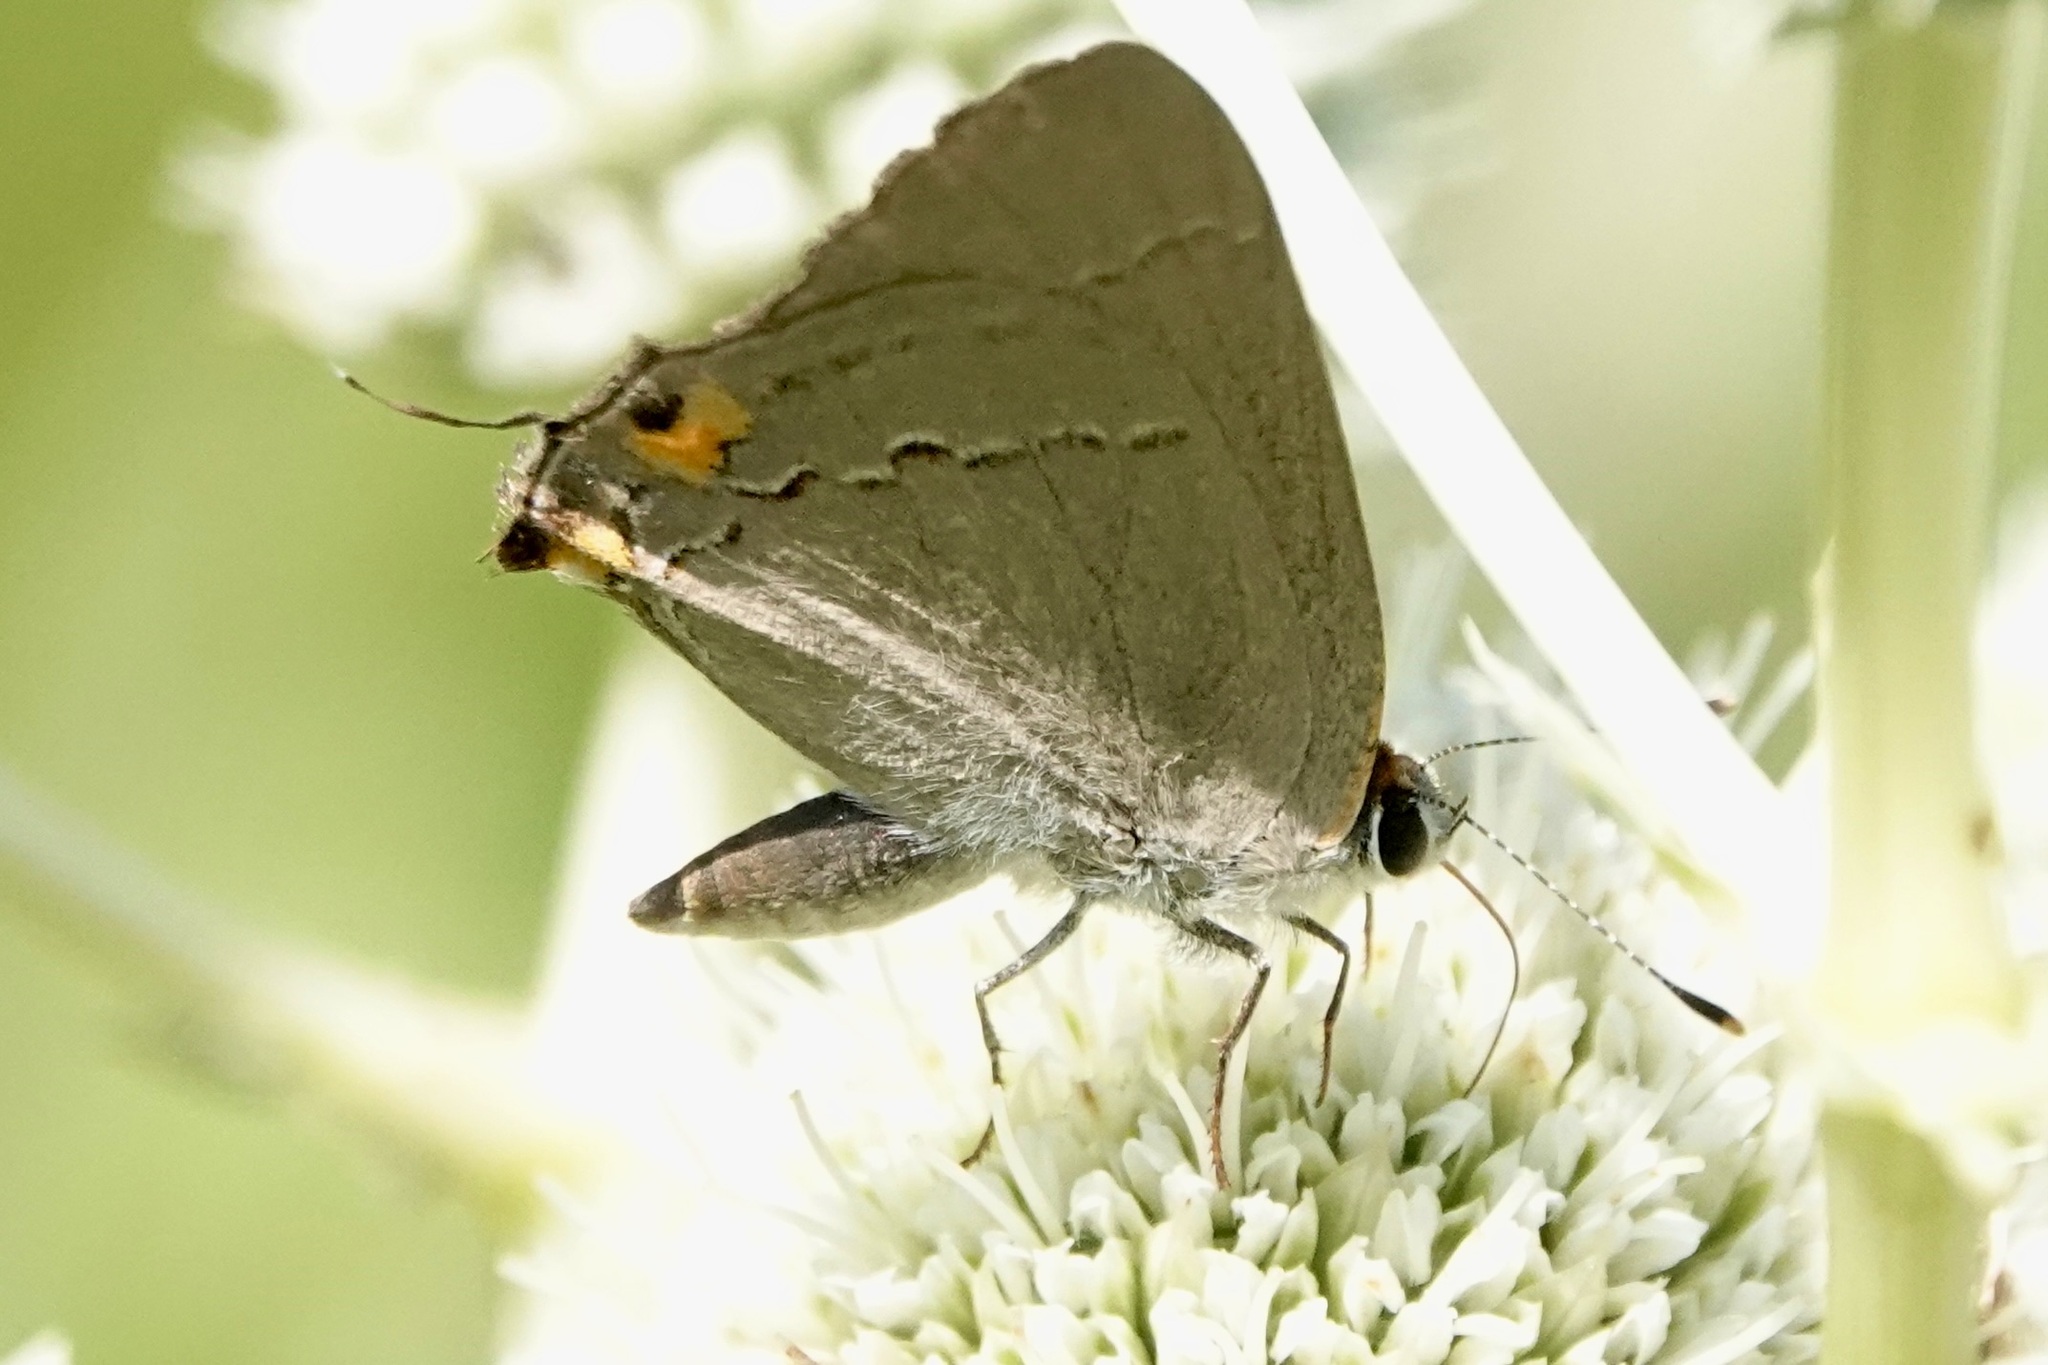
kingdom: Animalia
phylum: Arthropoda
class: Insecta
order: Lepidoptera
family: Lycaenidae
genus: Strymon
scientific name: Strymon melinus
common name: Gray hairstreak
